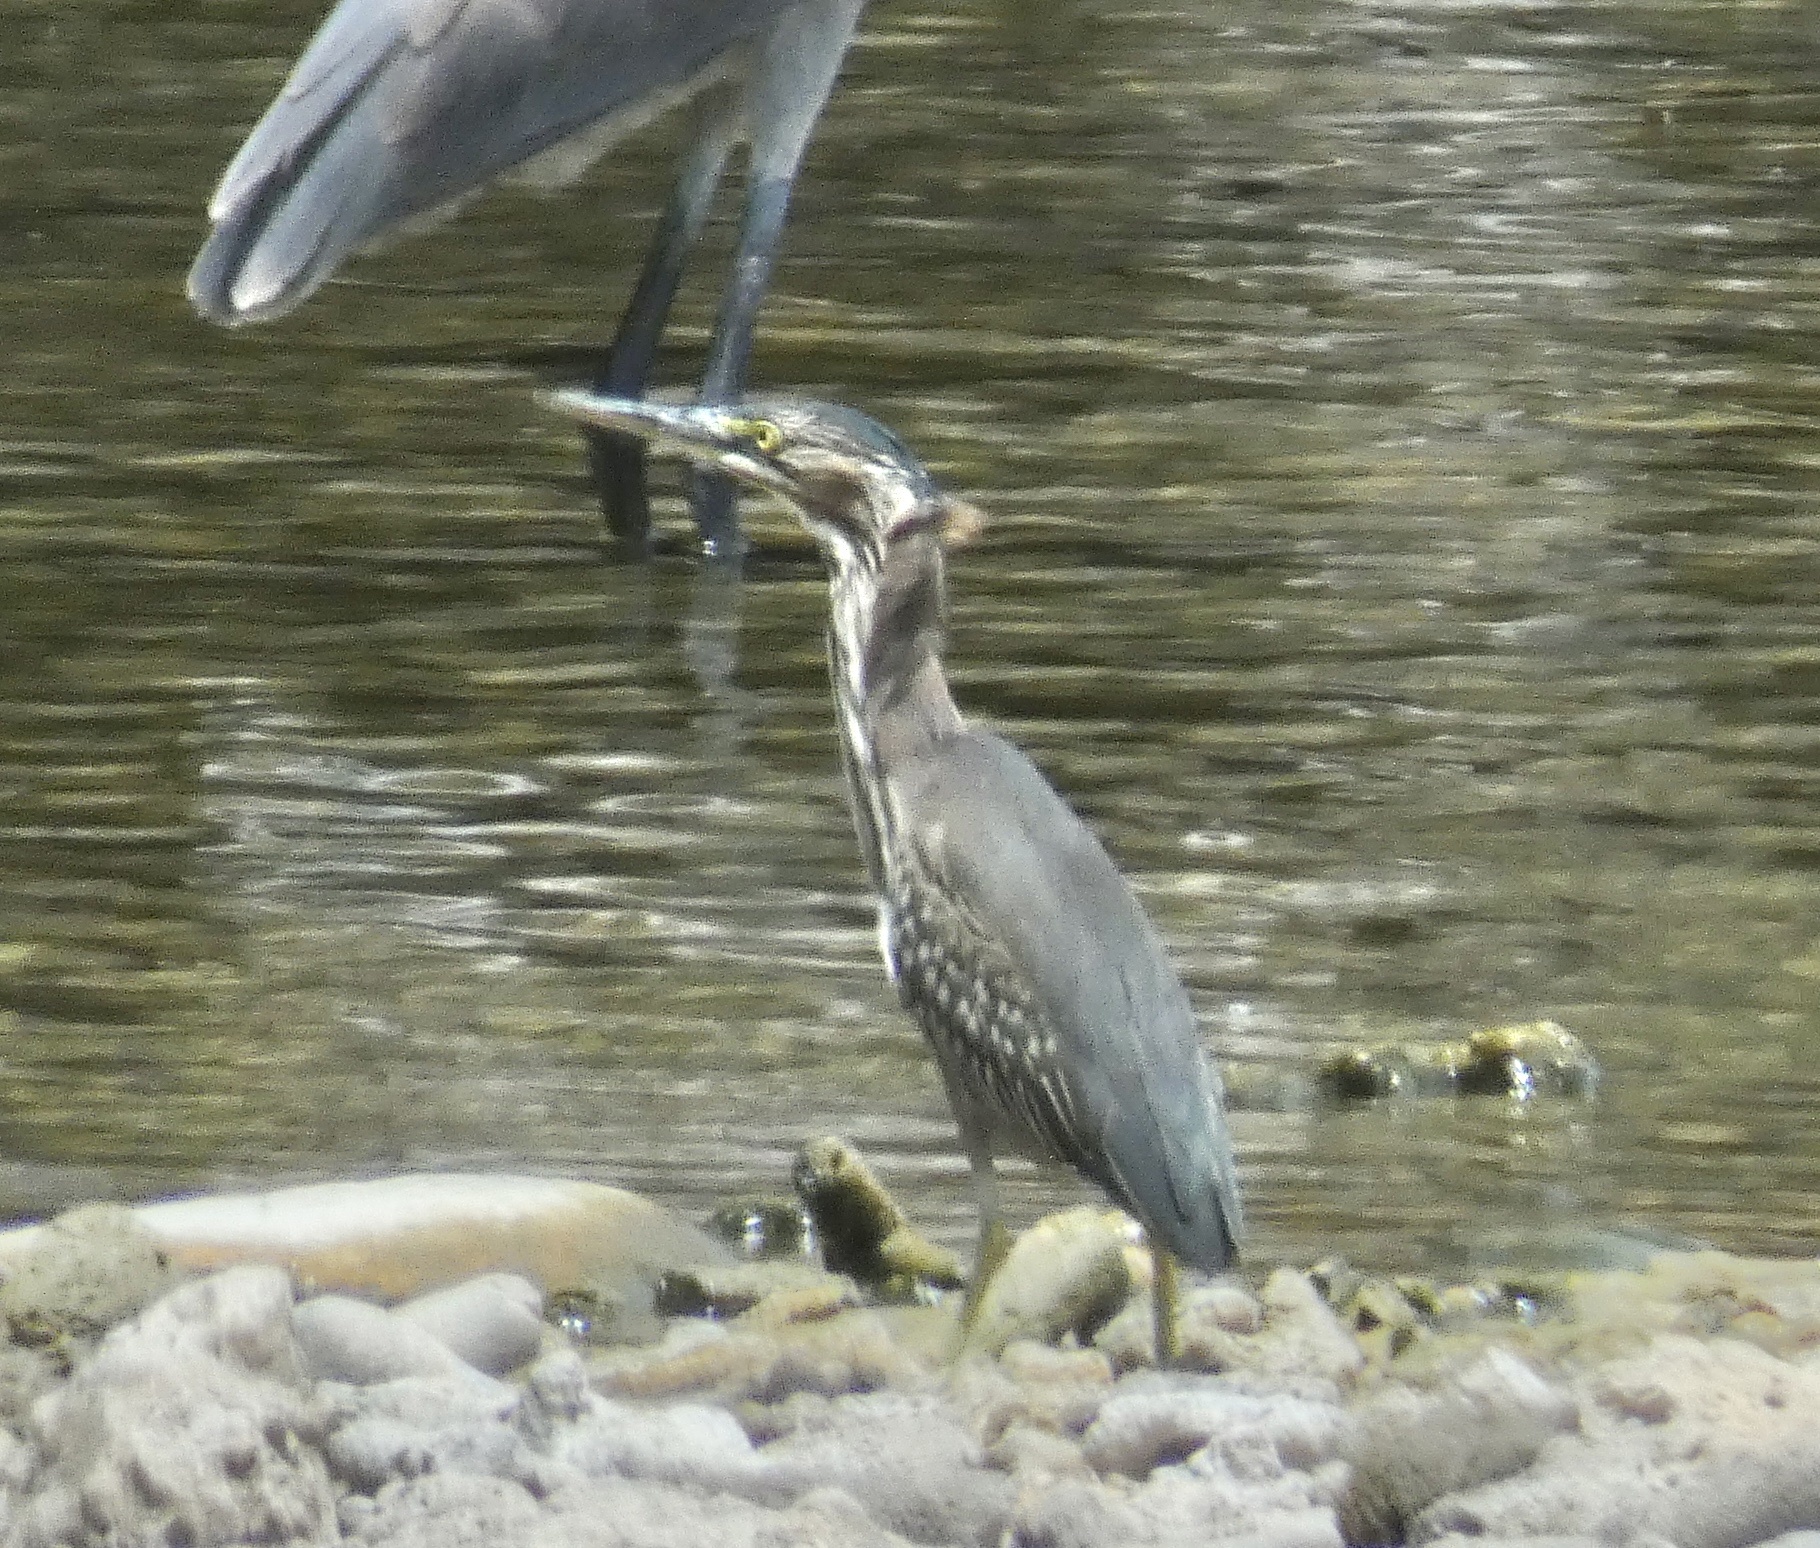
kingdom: Animalia
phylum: Chordata
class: Aves
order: Pelecaniformes
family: Ardeidae
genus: Butorides
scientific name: Butorides virescens
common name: Green heron
